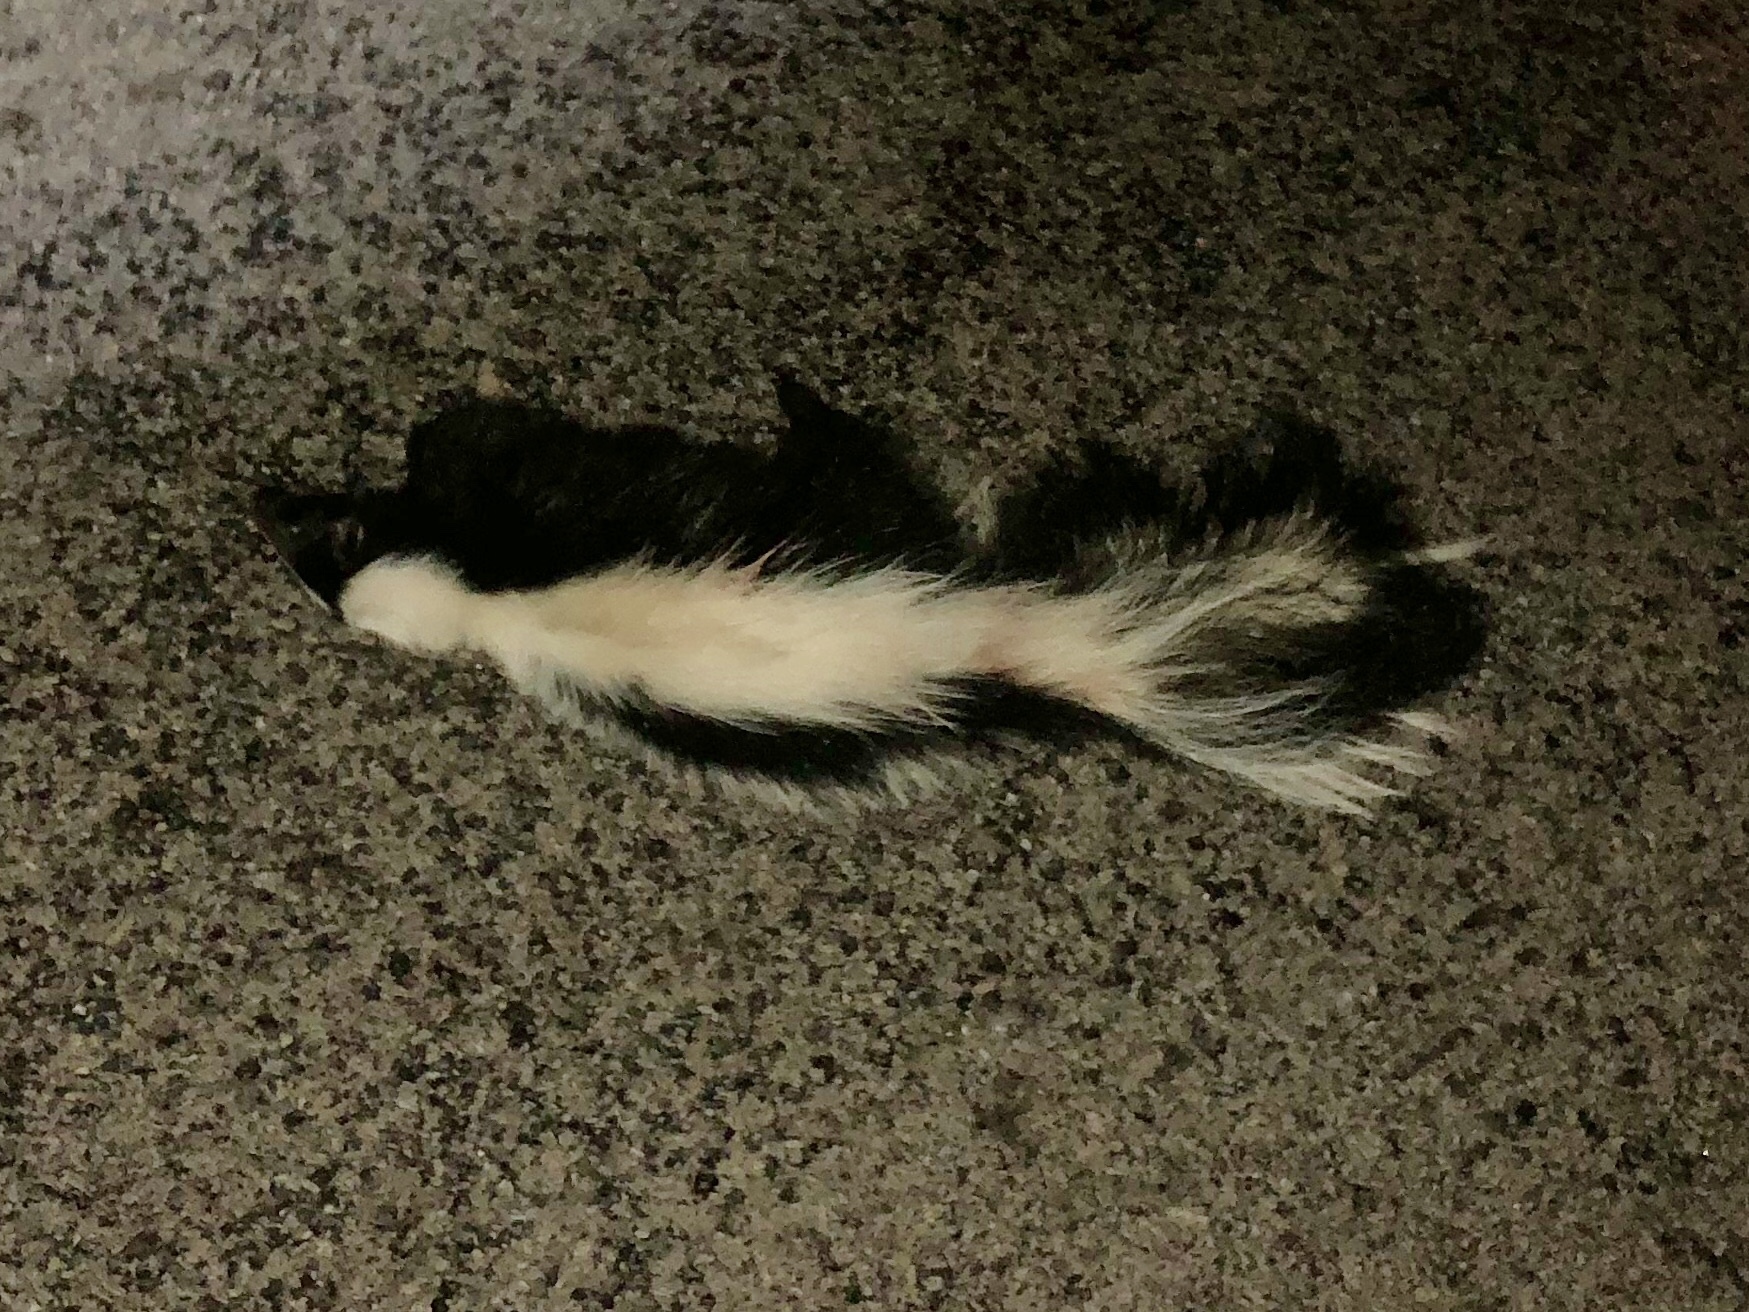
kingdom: Animalia
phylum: Chordata
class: Mammalia
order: Carnivora
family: Mephitidae
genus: Mephitis
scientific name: Mephitis mephitis
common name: Striped skunk
